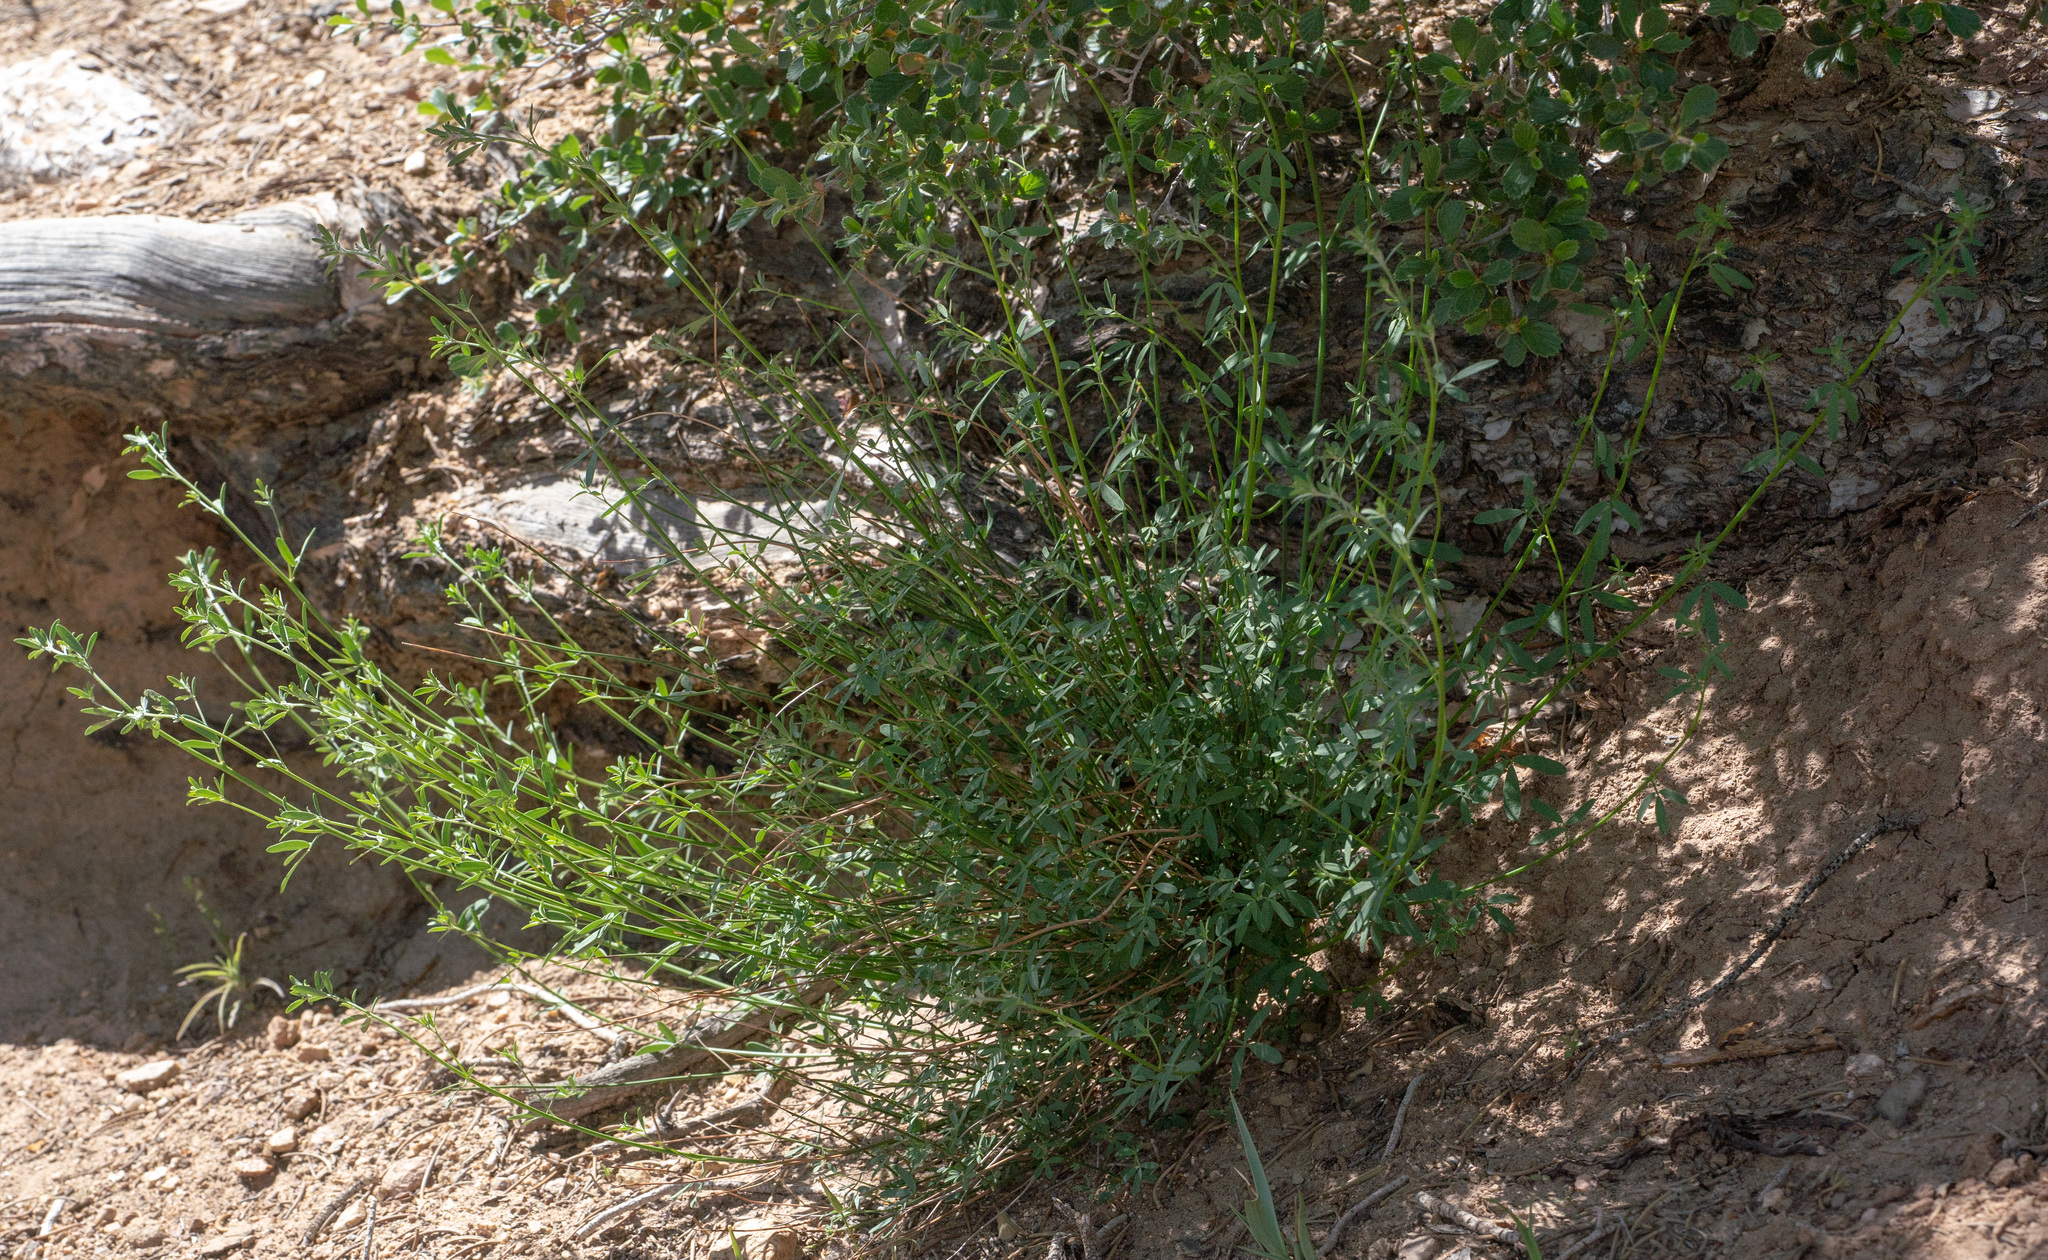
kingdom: Plantae
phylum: Tracheophyta
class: Magnoliopsida
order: Fabales
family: Fabaceae
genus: Acmispon
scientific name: Acmispon glaber
